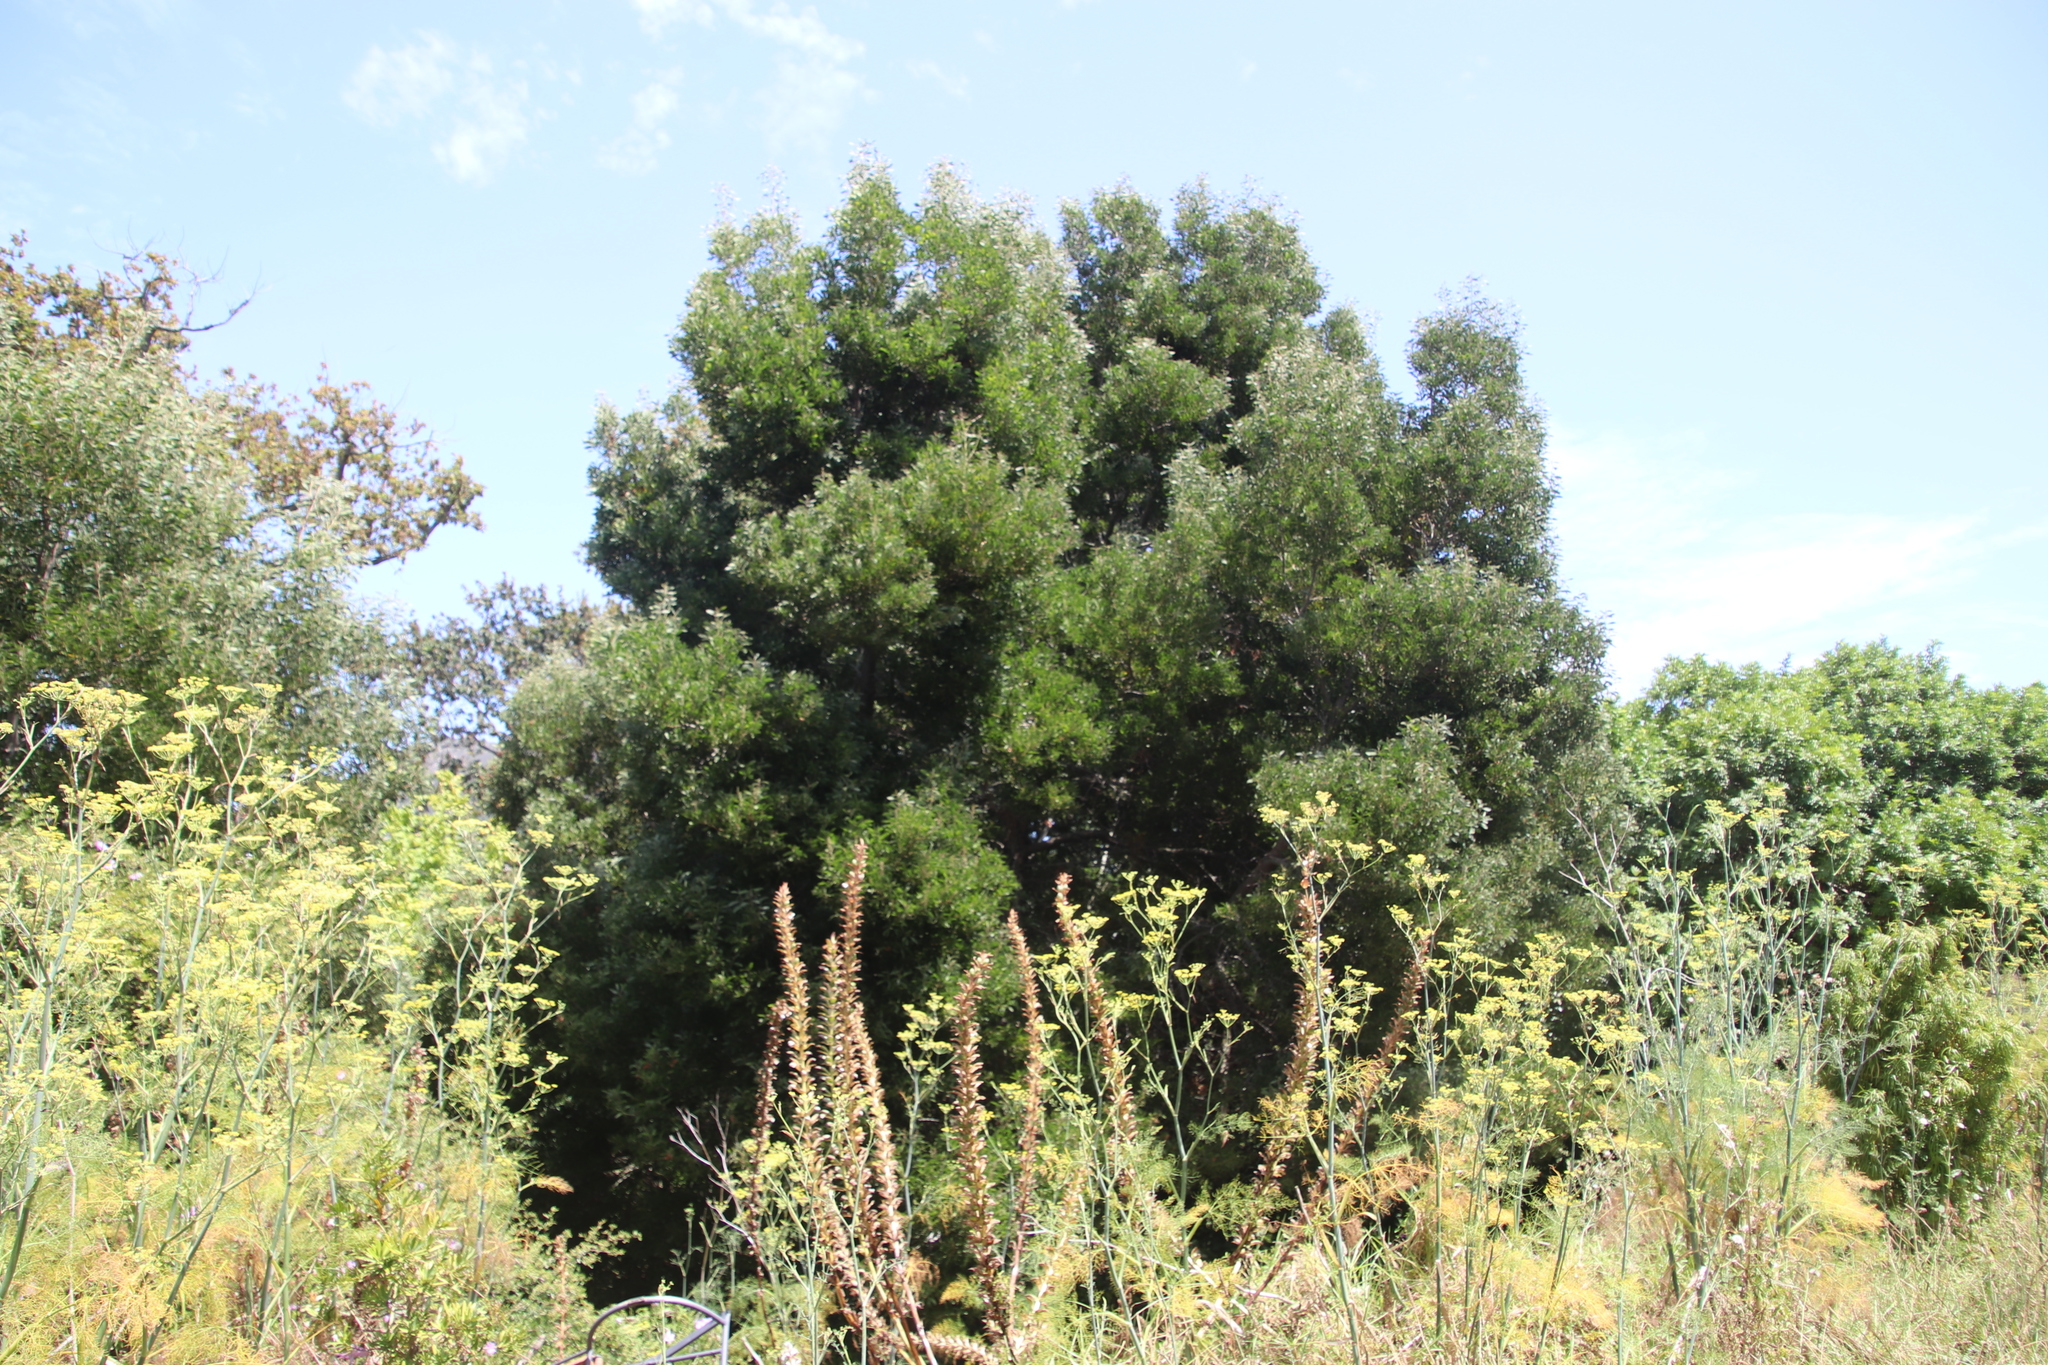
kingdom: Plantae
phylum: Tracheophyta
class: Magnoliopsida
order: Fabales
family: Fabaceae
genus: Acacia
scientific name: Acacia melanoxylon
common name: Blackwood
